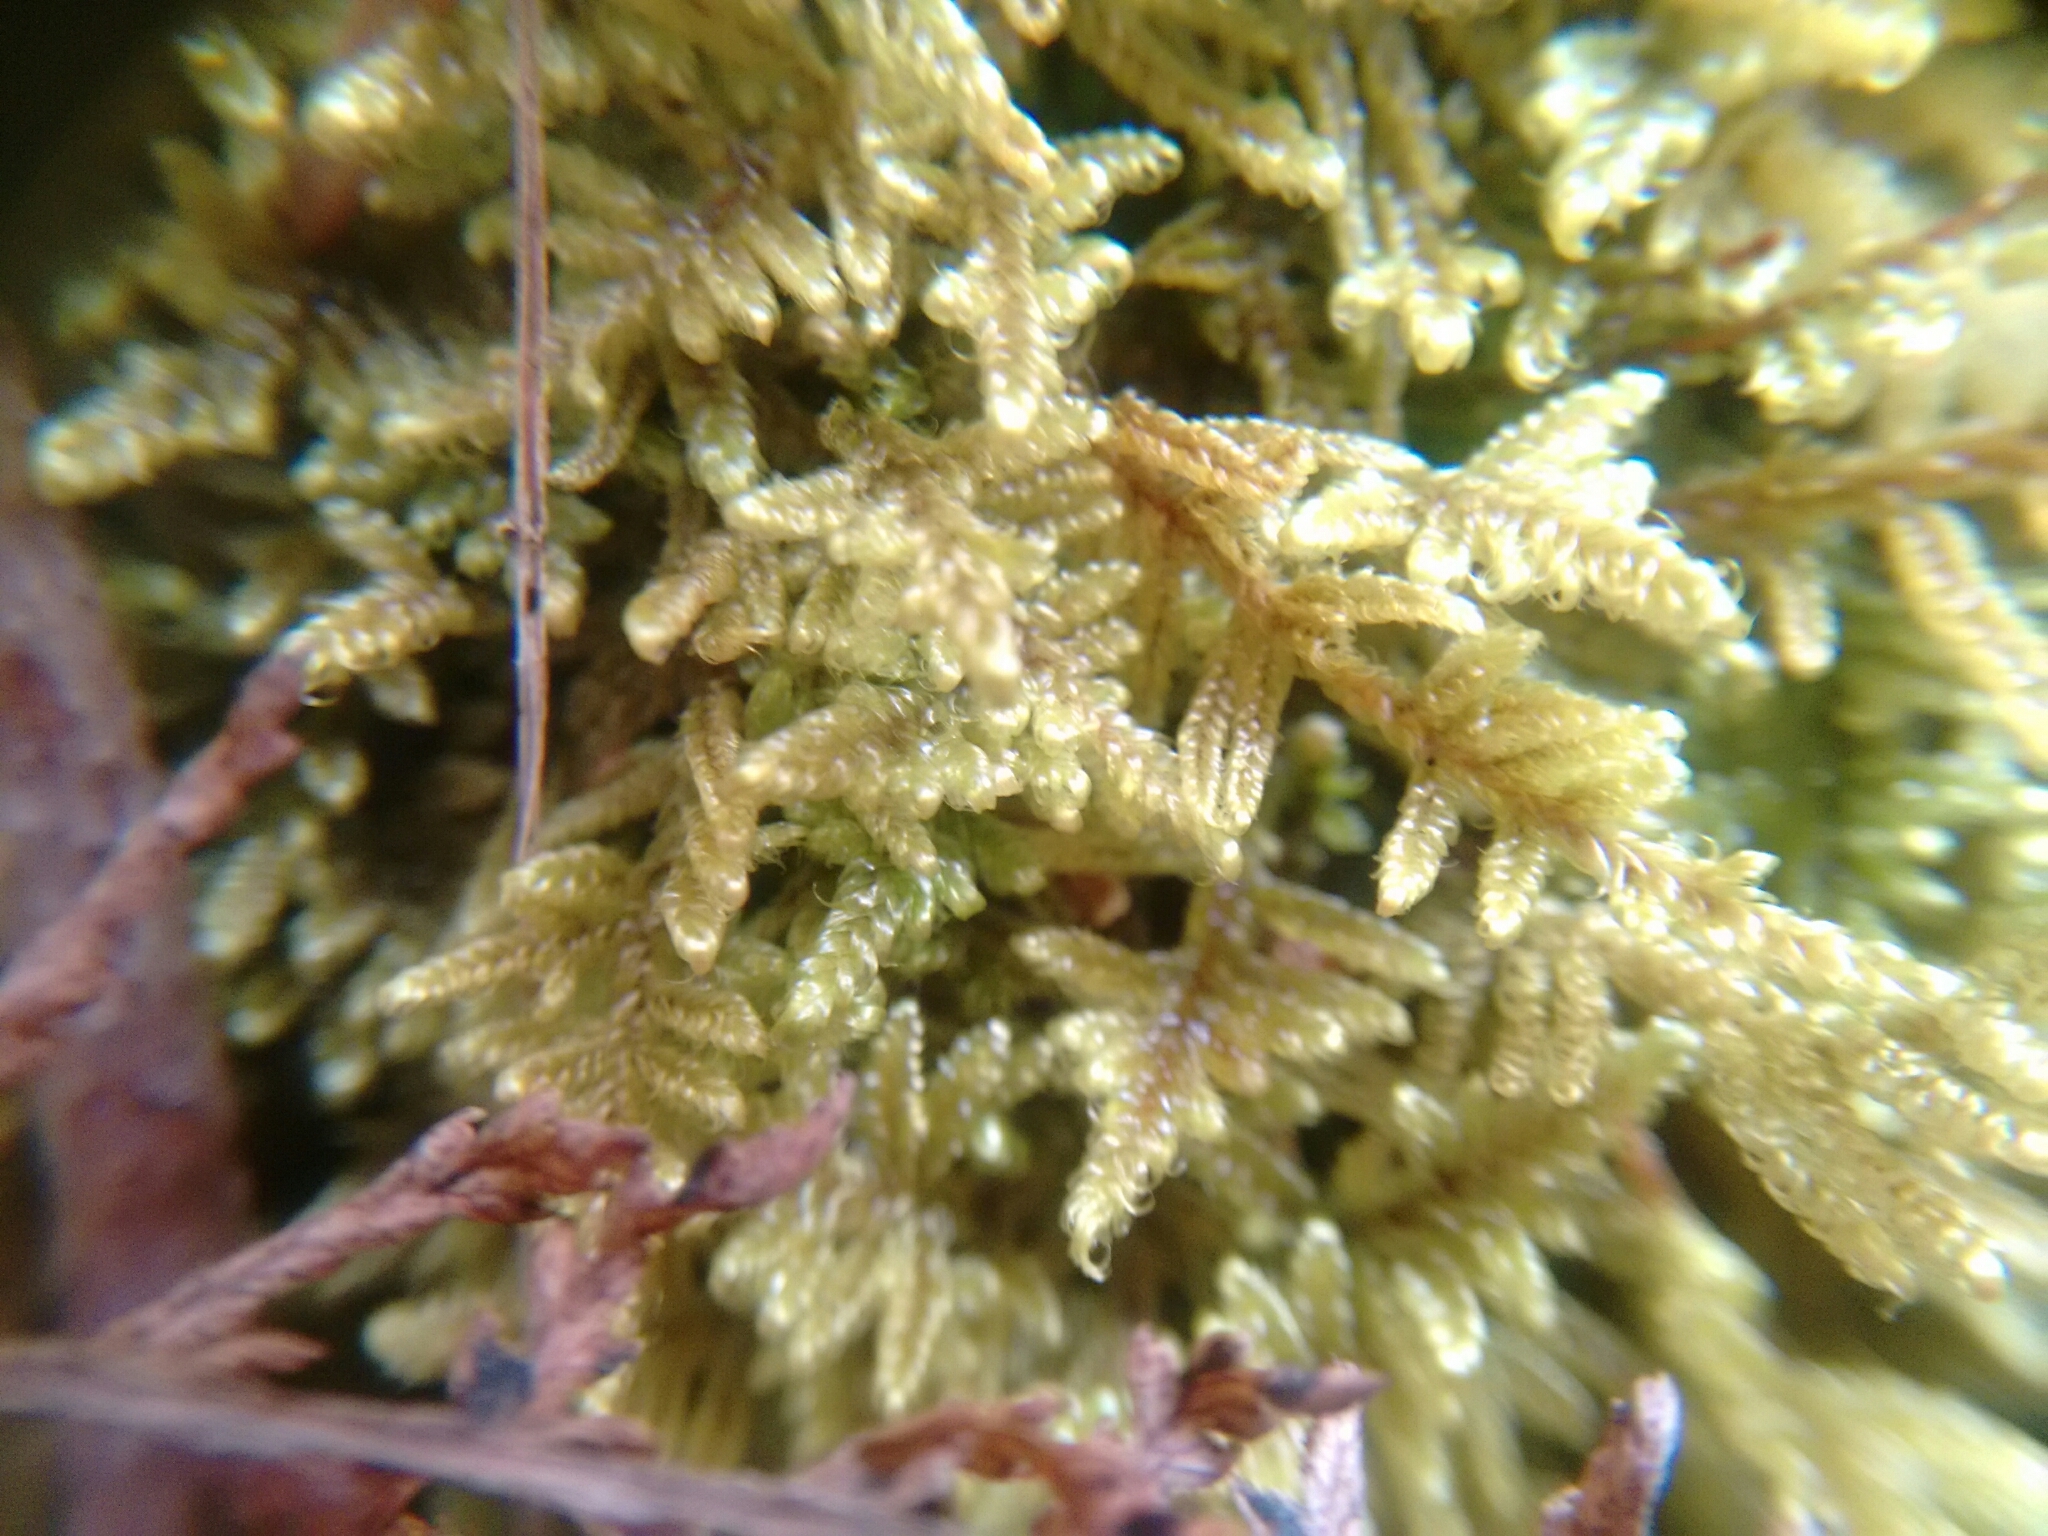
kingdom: Plantae
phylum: Bryophyta
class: Bryopsida
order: Hypnales
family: Callicladiaceae
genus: Callicladium
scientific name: Callicladium imponens
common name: Brocade moss
